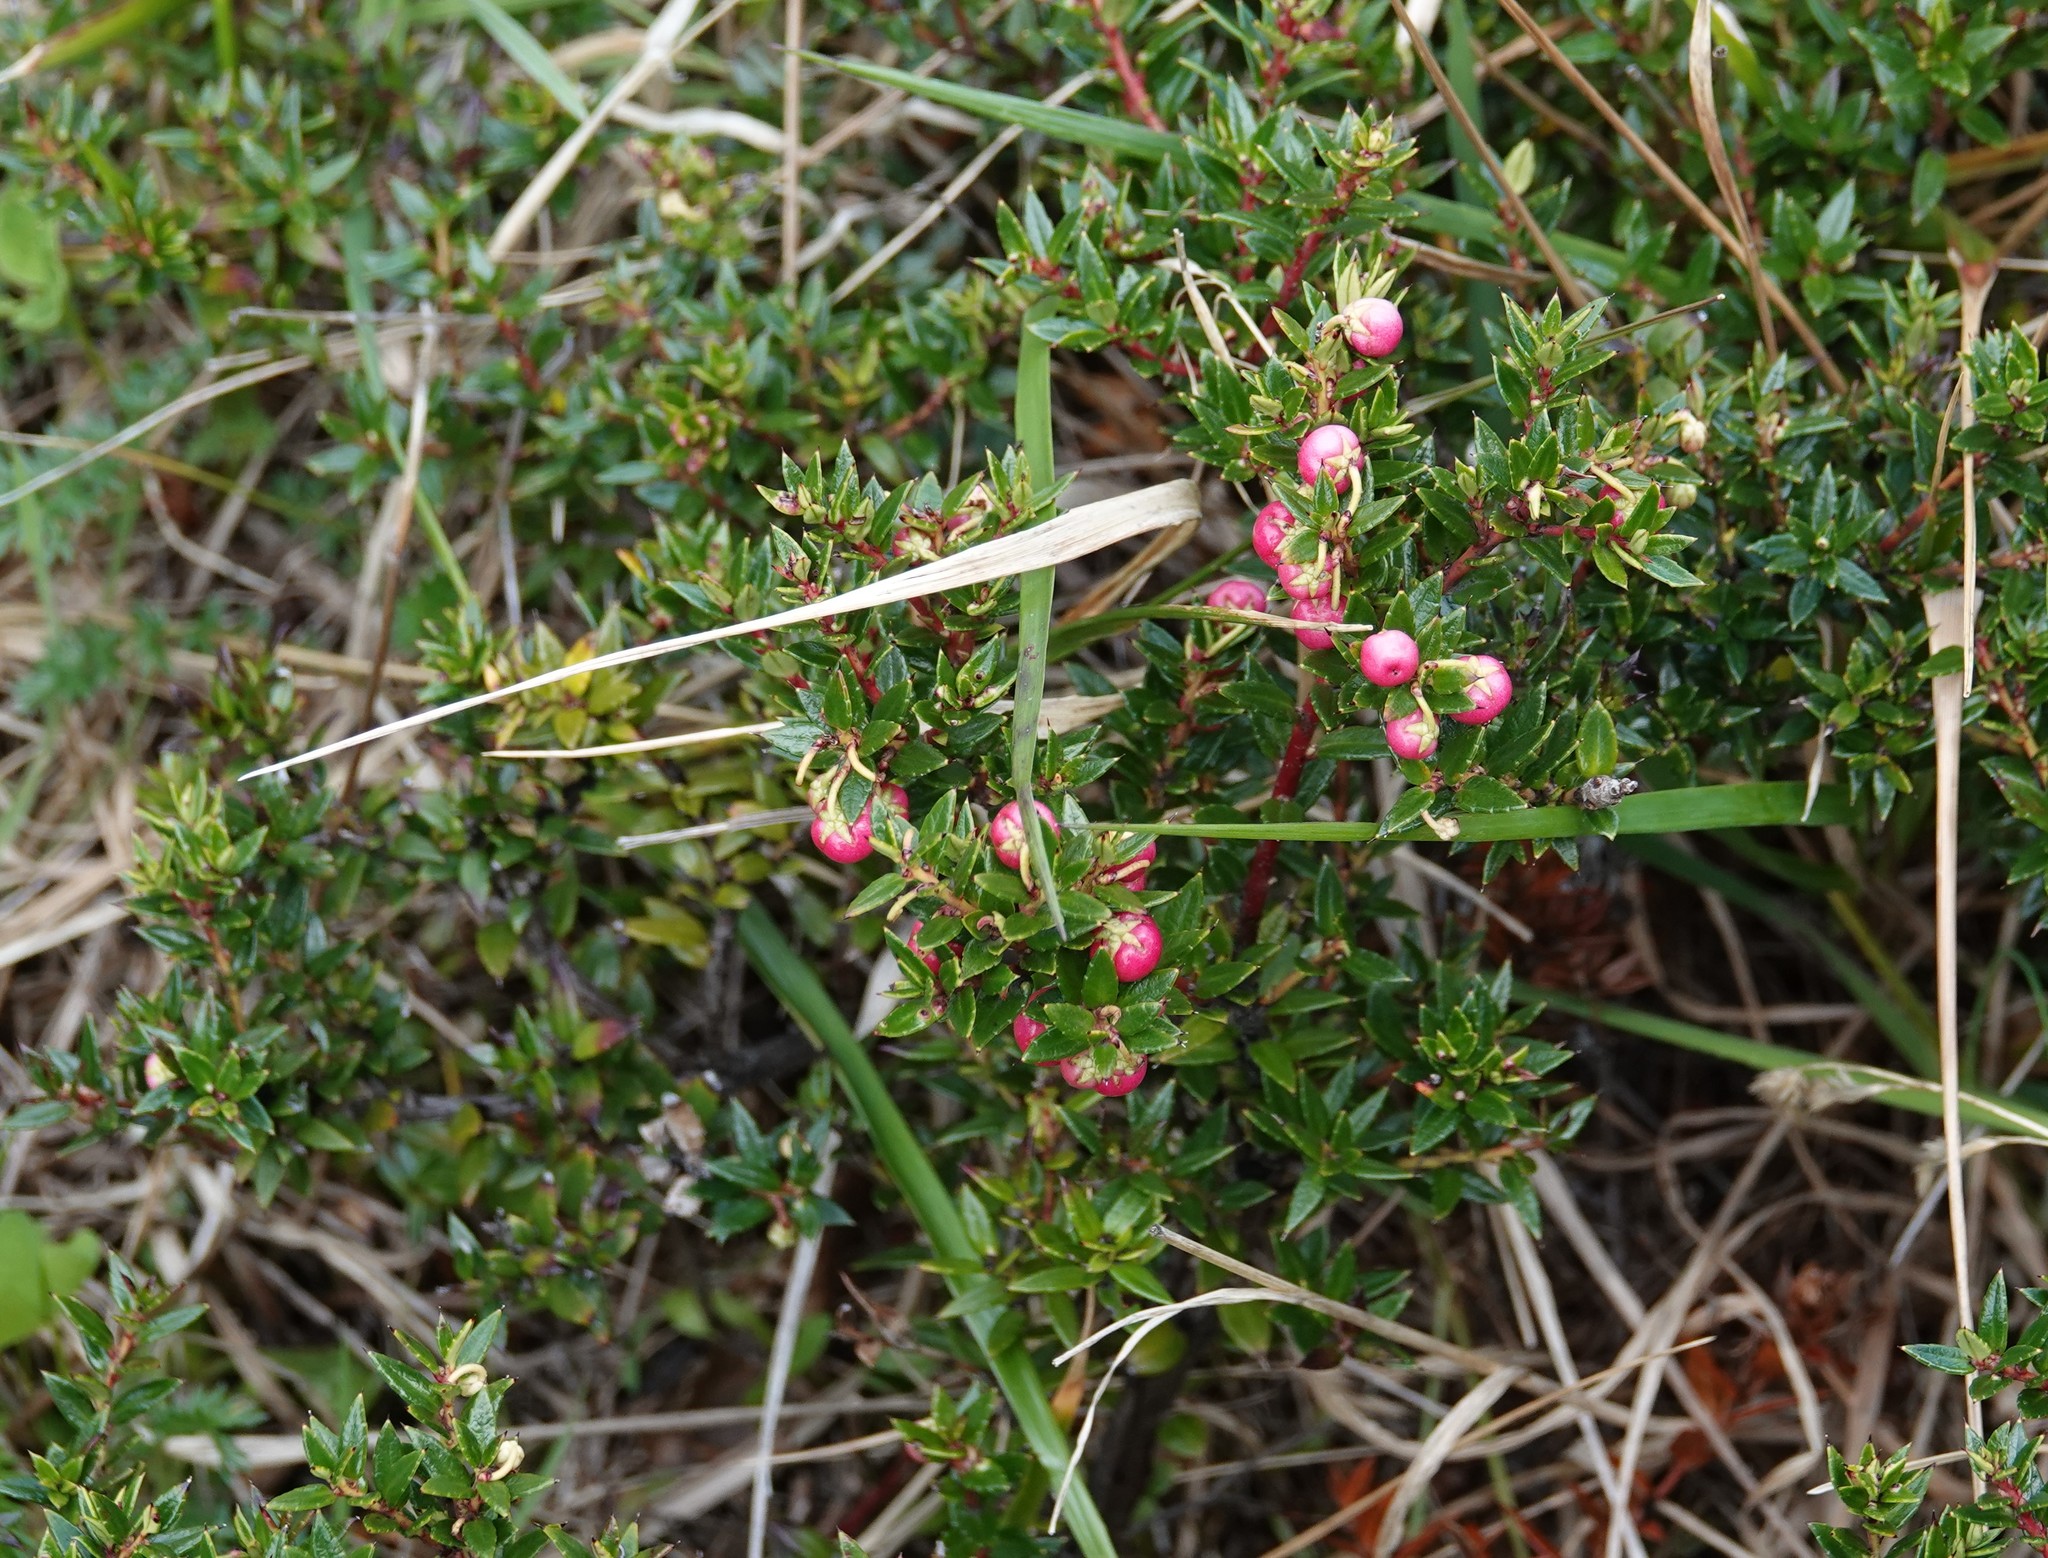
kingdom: Plantae
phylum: Tracheophyta
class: Magnoliopsida
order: Ericales
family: Ericaceae
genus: Gaultheria
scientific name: Gaultheria mucronata
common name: Prickly heath
